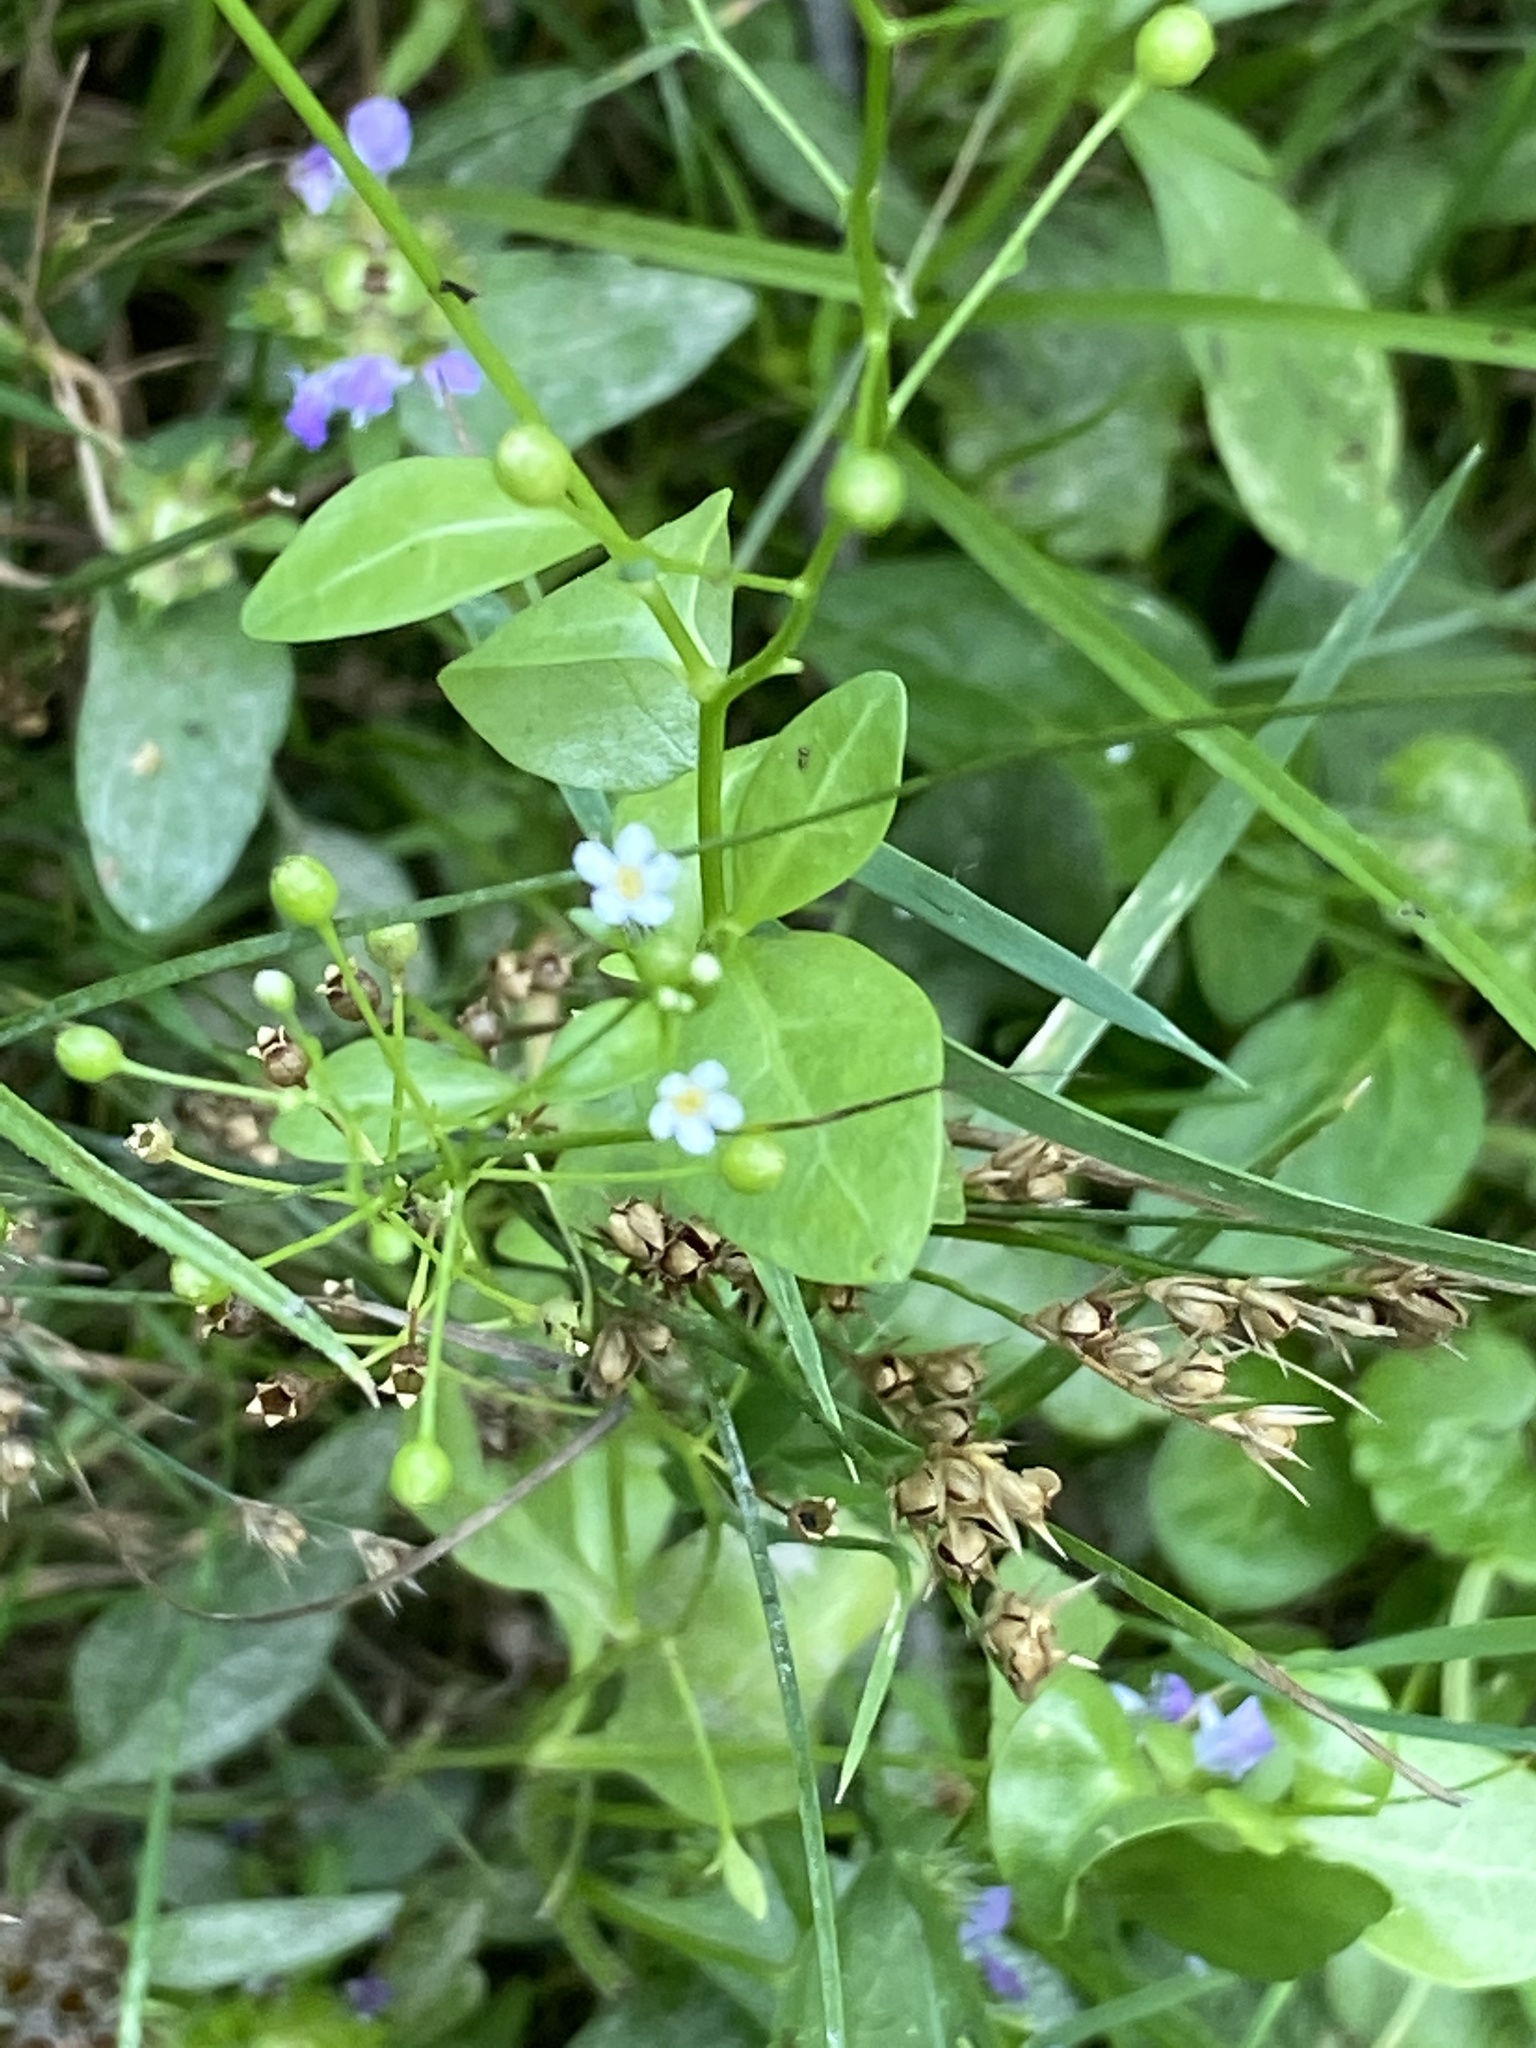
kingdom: Plantae
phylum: Tracheophyta
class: Magnoliopsida
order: Ericales
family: Primulaceae
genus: Samolus
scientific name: Samolus parviflorus
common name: False water pimpernel
